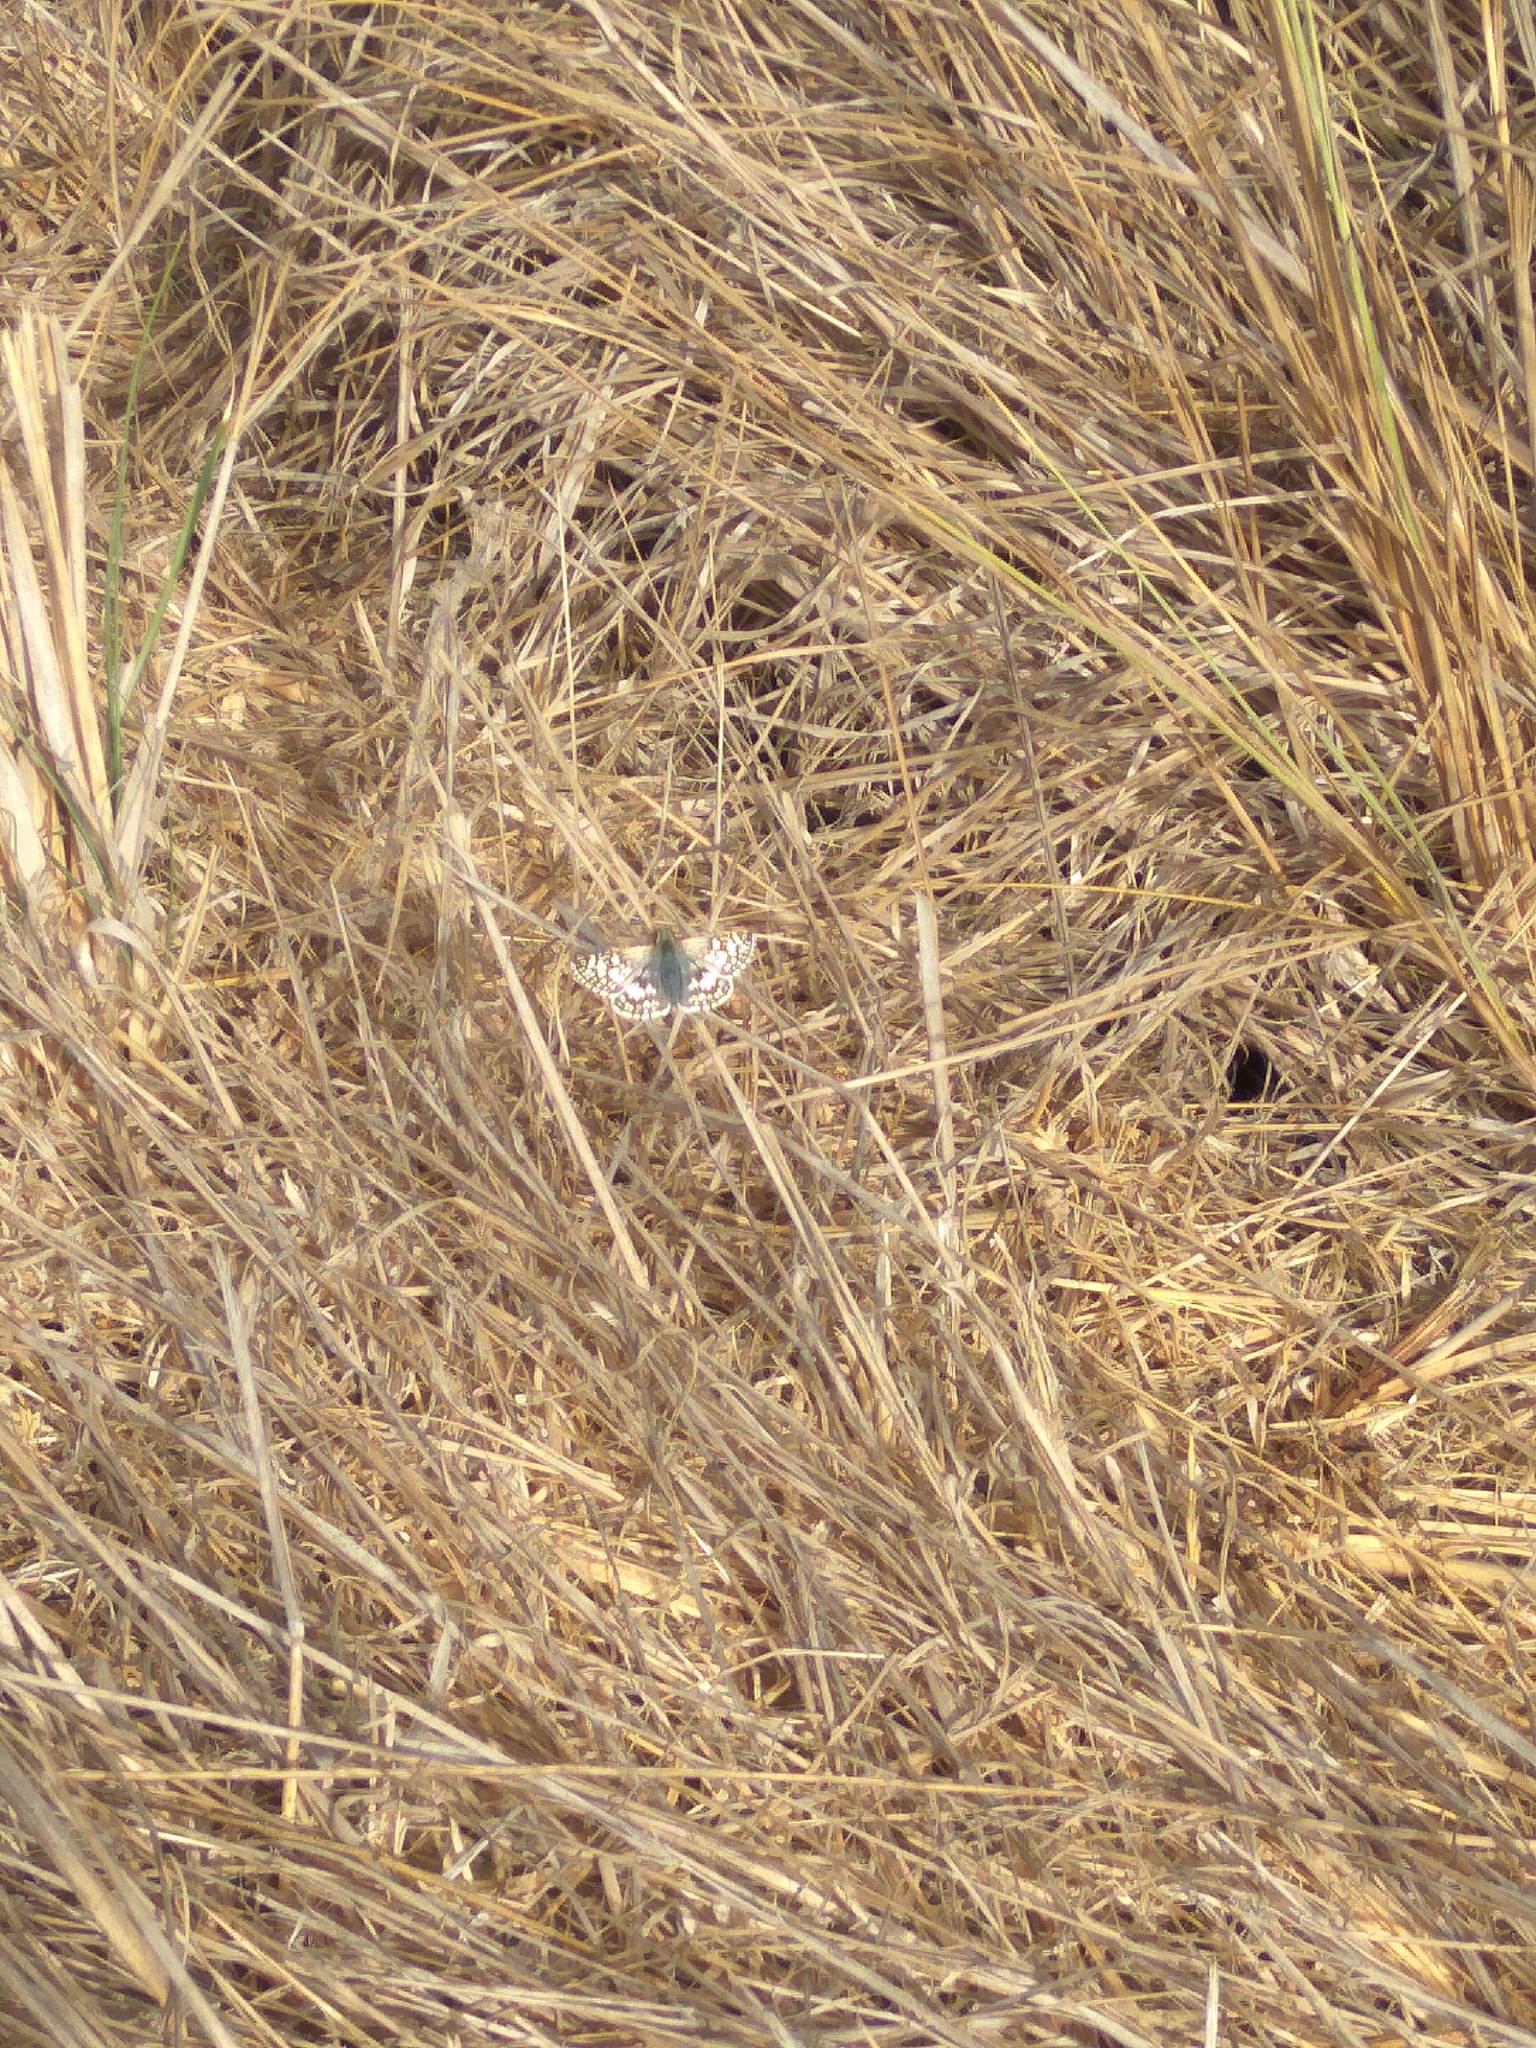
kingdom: Animalia
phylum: Arthropoda
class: Insecta
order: Lepidoptera
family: Hesperiidae
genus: Burnsius
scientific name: Burnsius communis
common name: Common checkered-skipper
